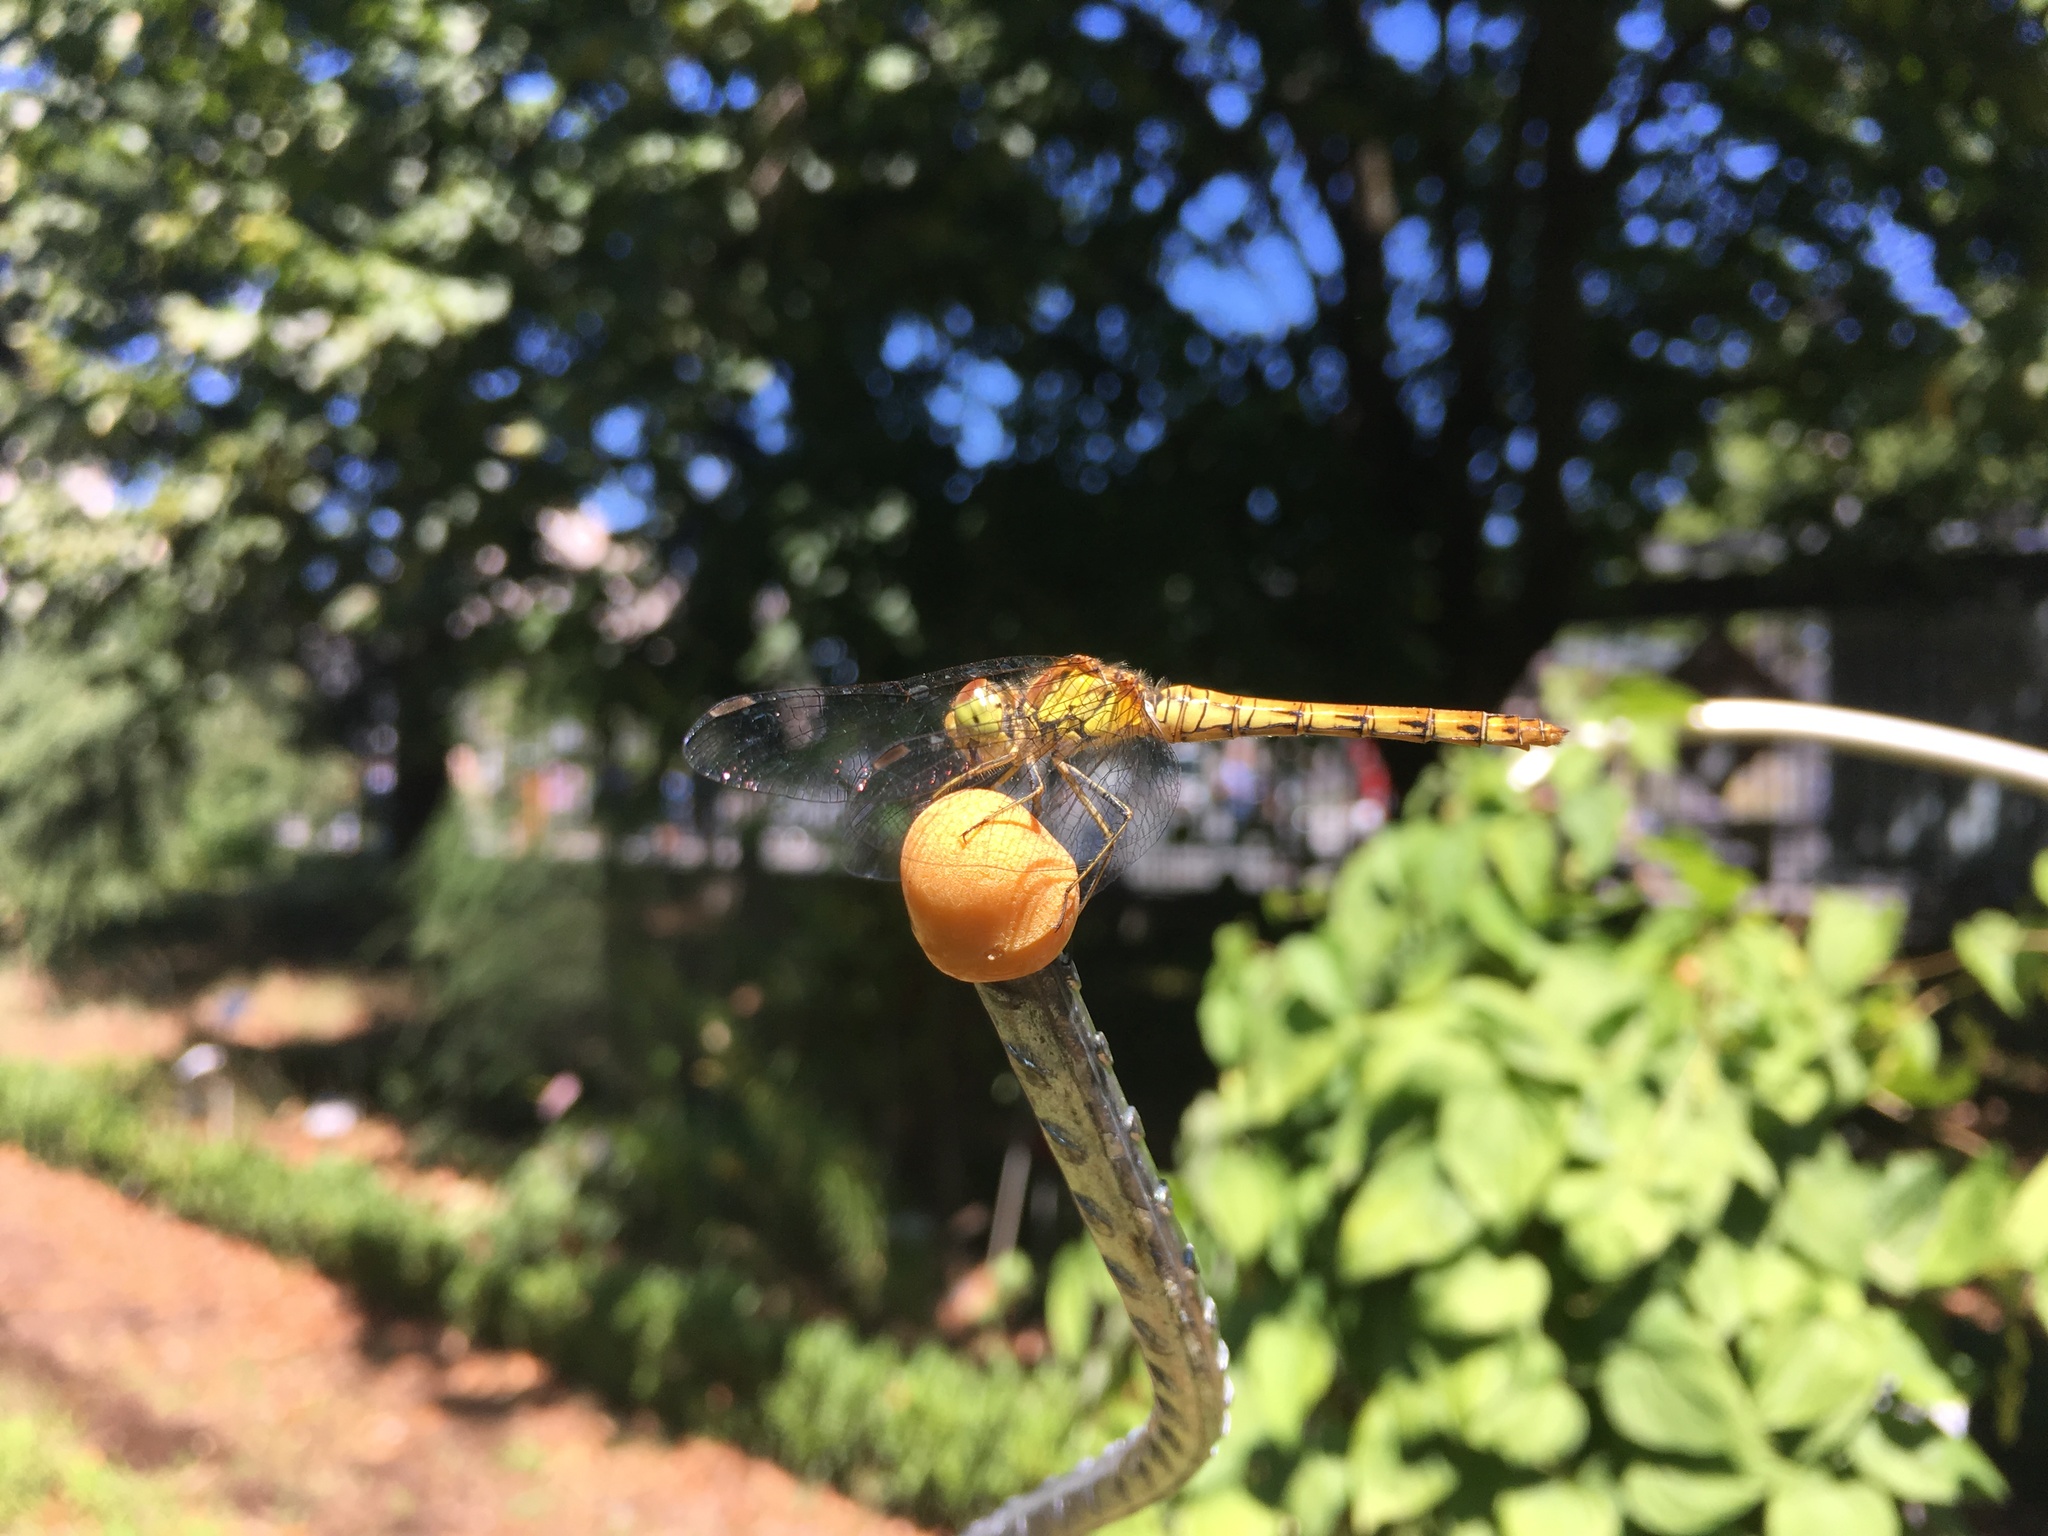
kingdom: Animalia
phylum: Arthropoda
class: Insecta
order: Odonata
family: Libellulidae
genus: Sympetrum
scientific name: Sympetrum striolatum
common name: Common darter
